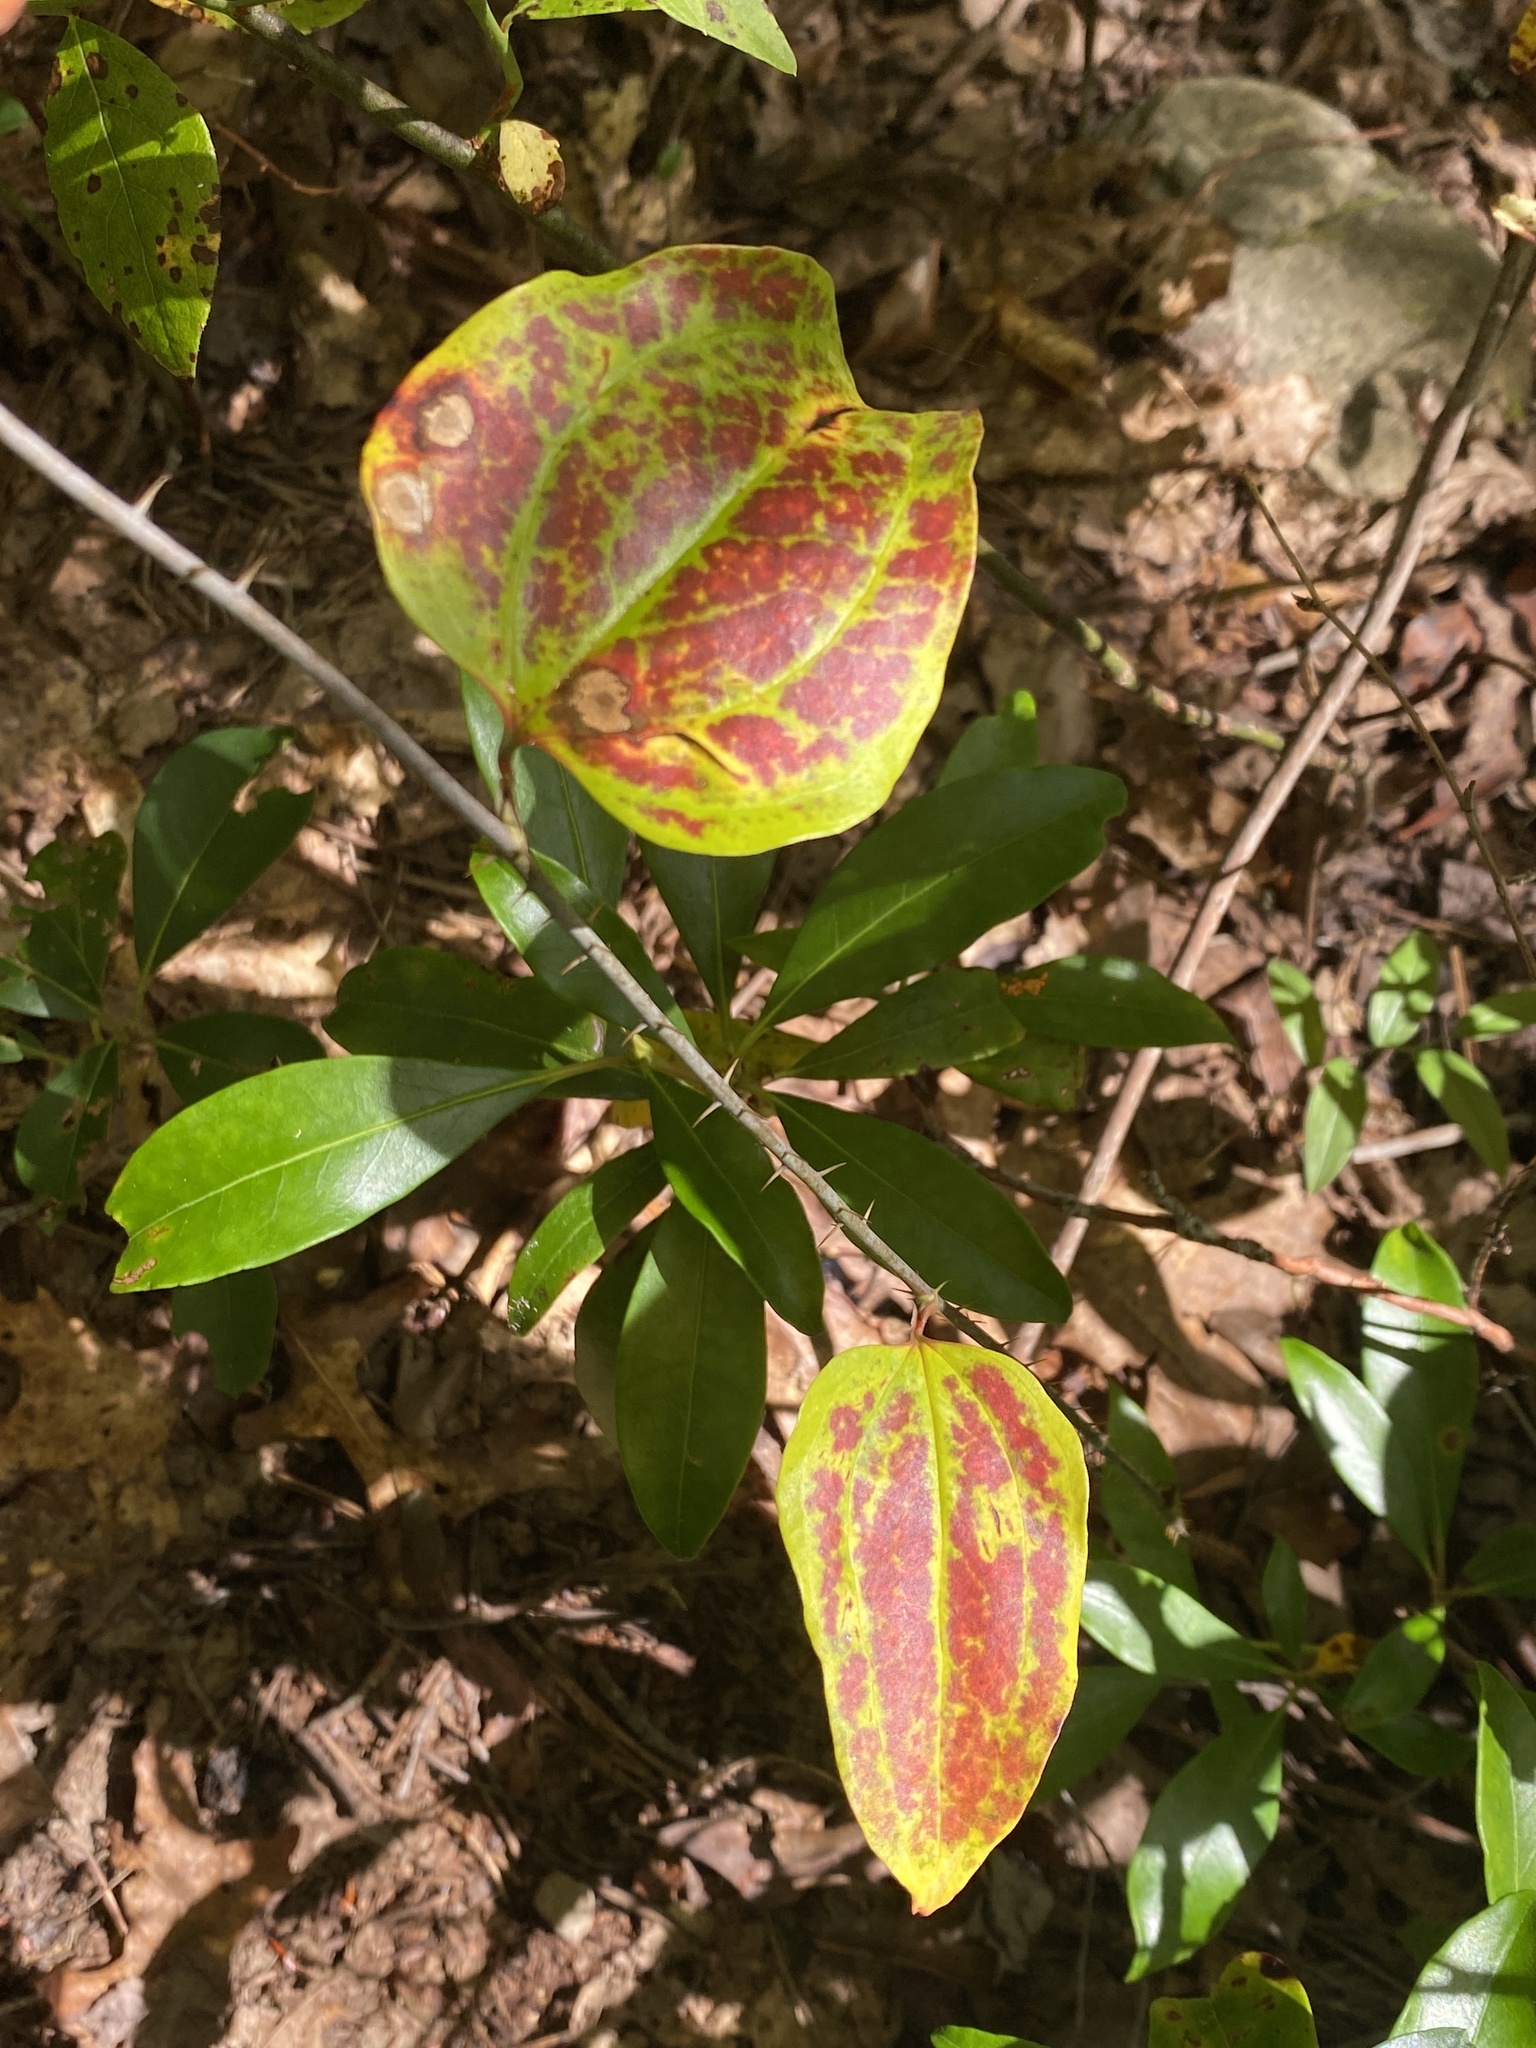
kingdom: Plantae
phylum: Tracheophyta
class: Liliopsida
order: Liliales
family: Smilacaceae
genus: Smilax
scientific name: Smilax glauca
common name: Cat greenbrier
